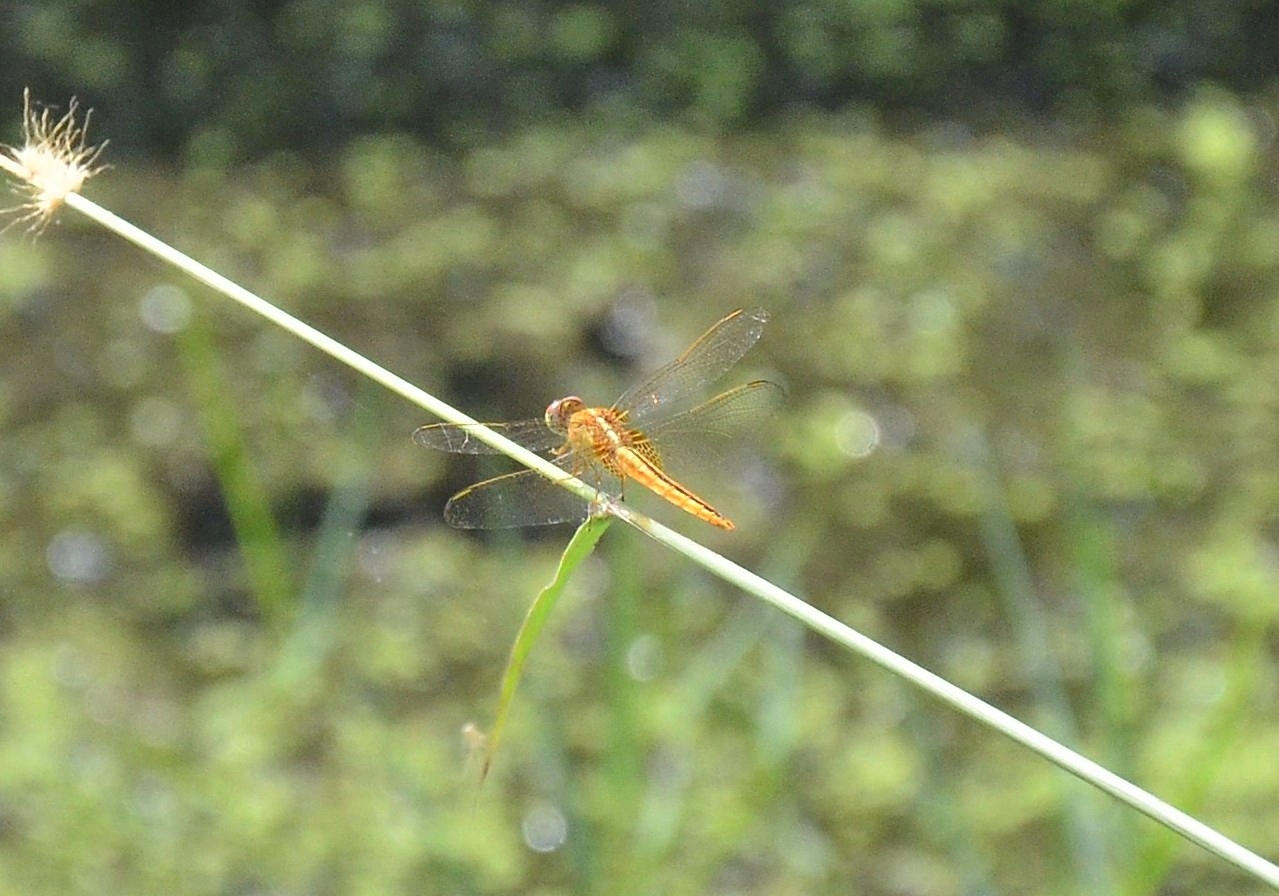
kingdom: Animalia
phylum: Arthropoda
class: Insecta
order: Odonata
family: Libellulidae
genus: Crocothemis
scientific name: Crocothemis servilia
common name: Scarlet skimmer
